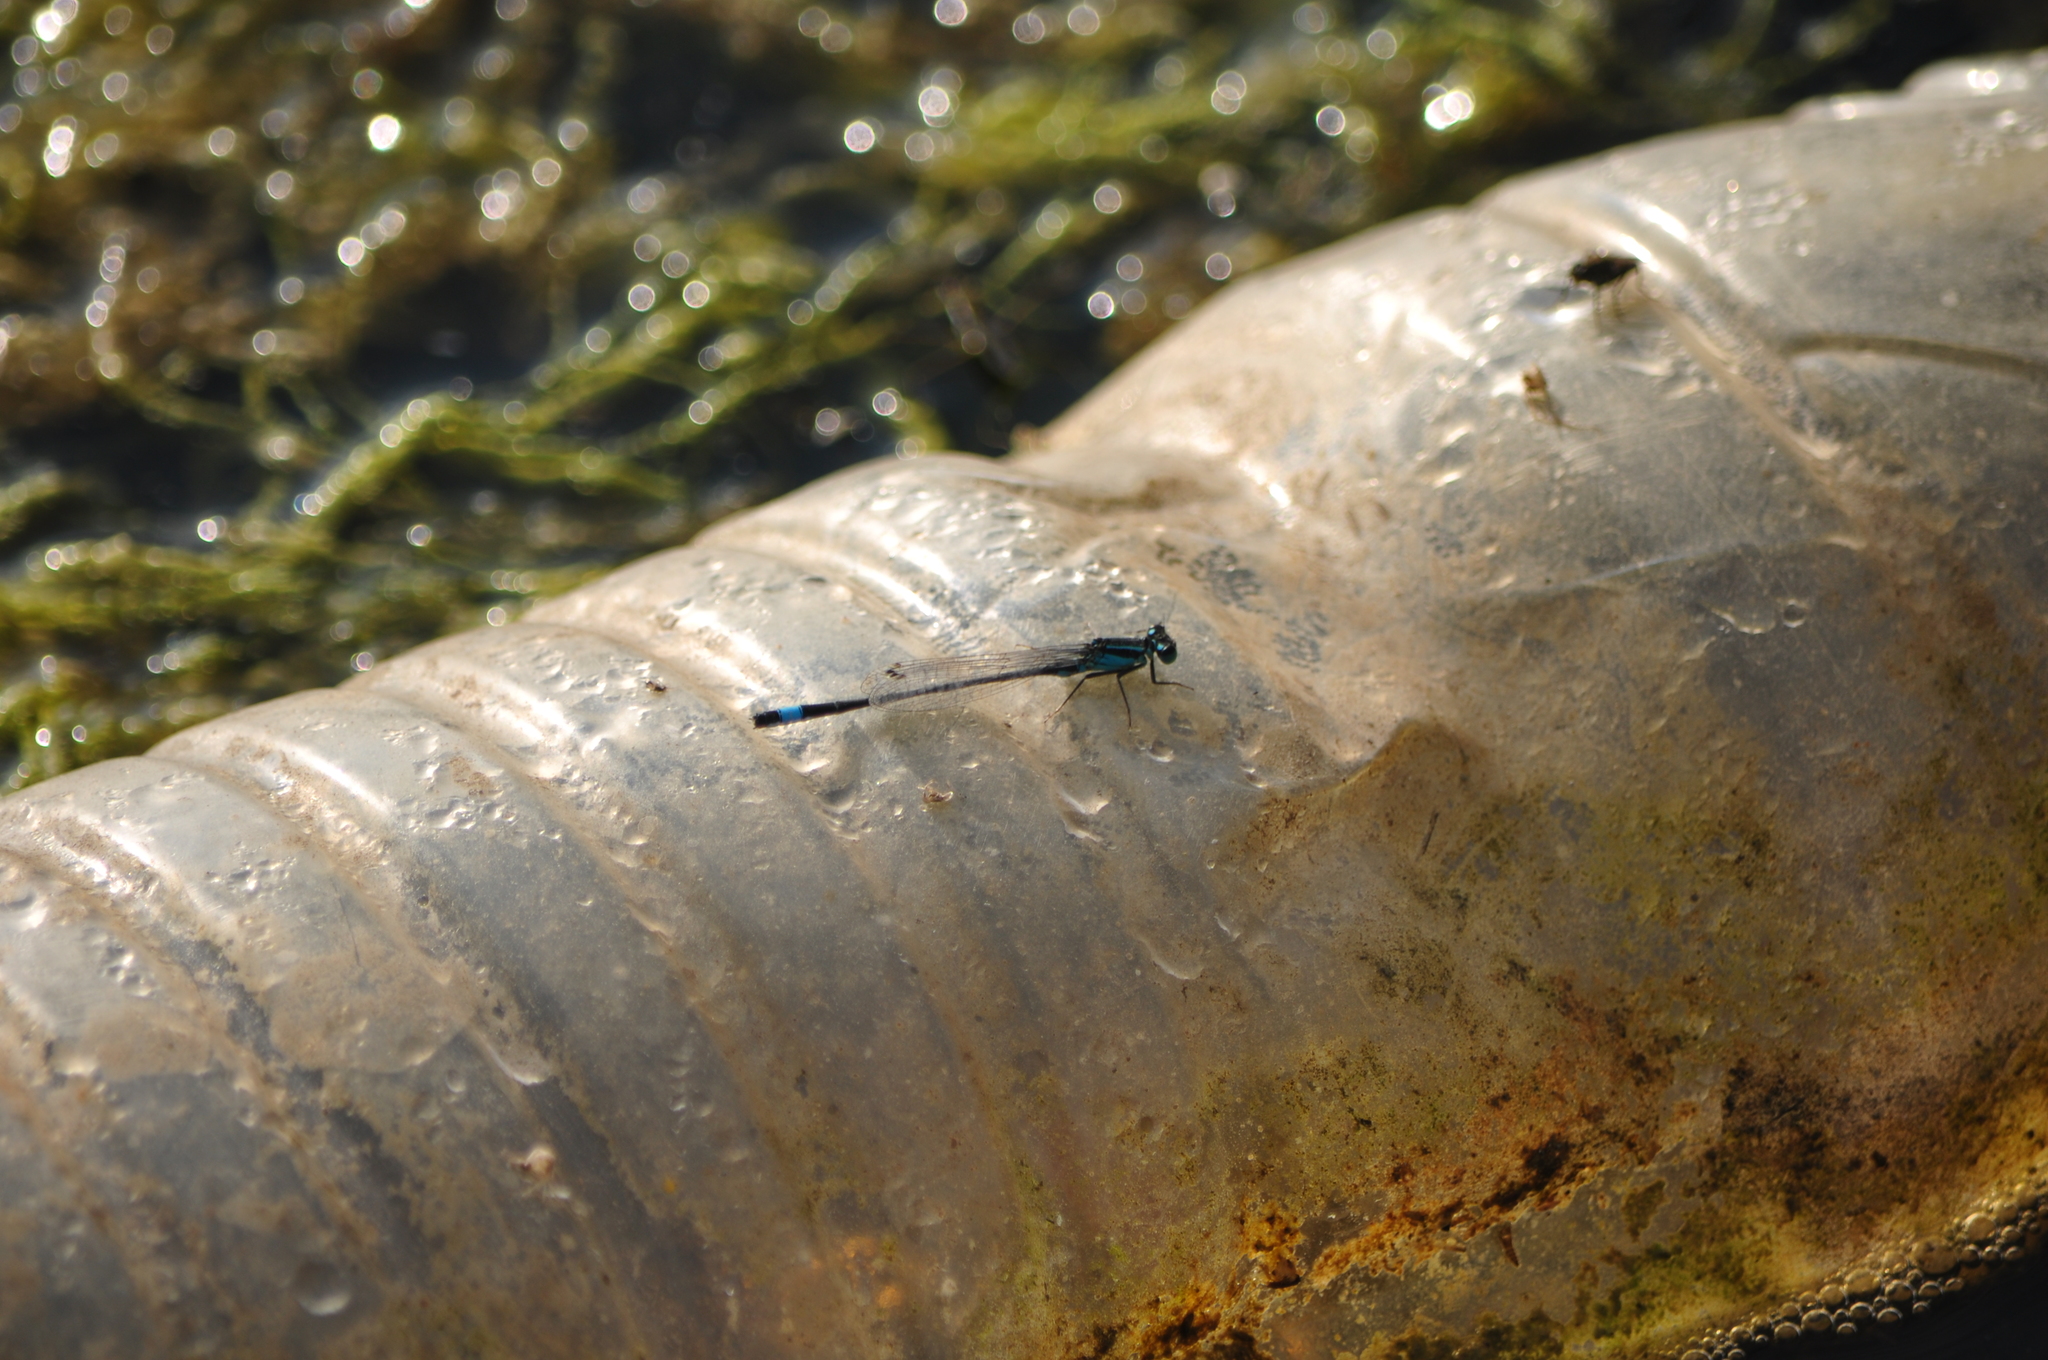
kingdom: Animalia
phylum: Arthropoda
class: Insecta
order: Odonata
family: Coenagrionidae
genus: Ischnura
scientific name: Ischnura elegans
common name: Blue-tailed damselfly
